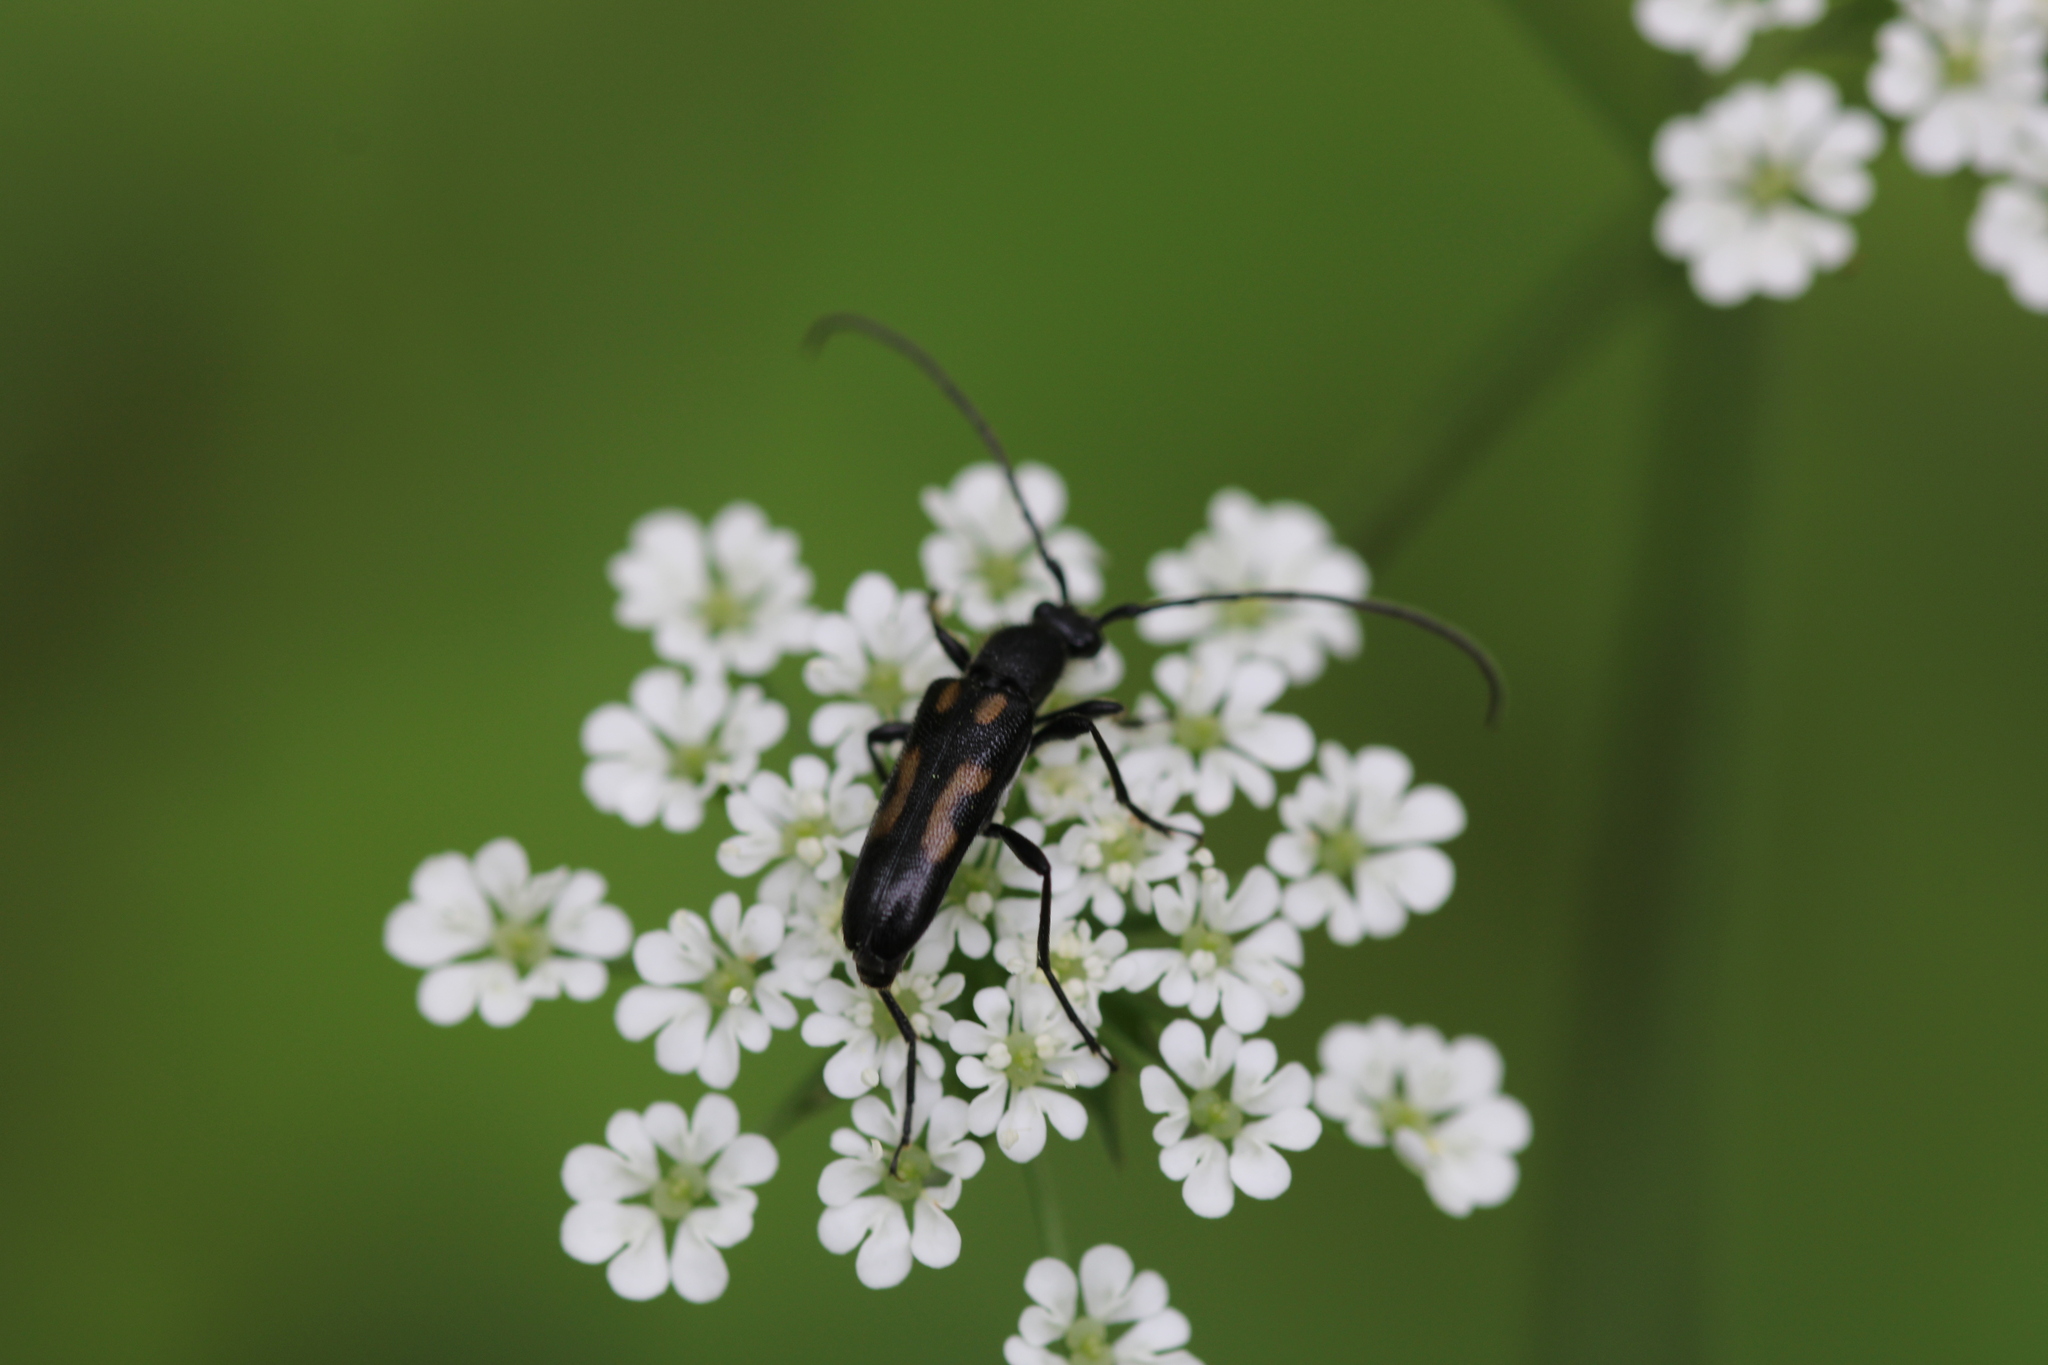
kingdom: Animalia
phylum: Arthropoda
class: Insecta
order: Coleoptera
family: Cerambycidae
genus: Anoplodera
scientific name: Anoplodera sexguttata
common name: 6 spotted longhorn
